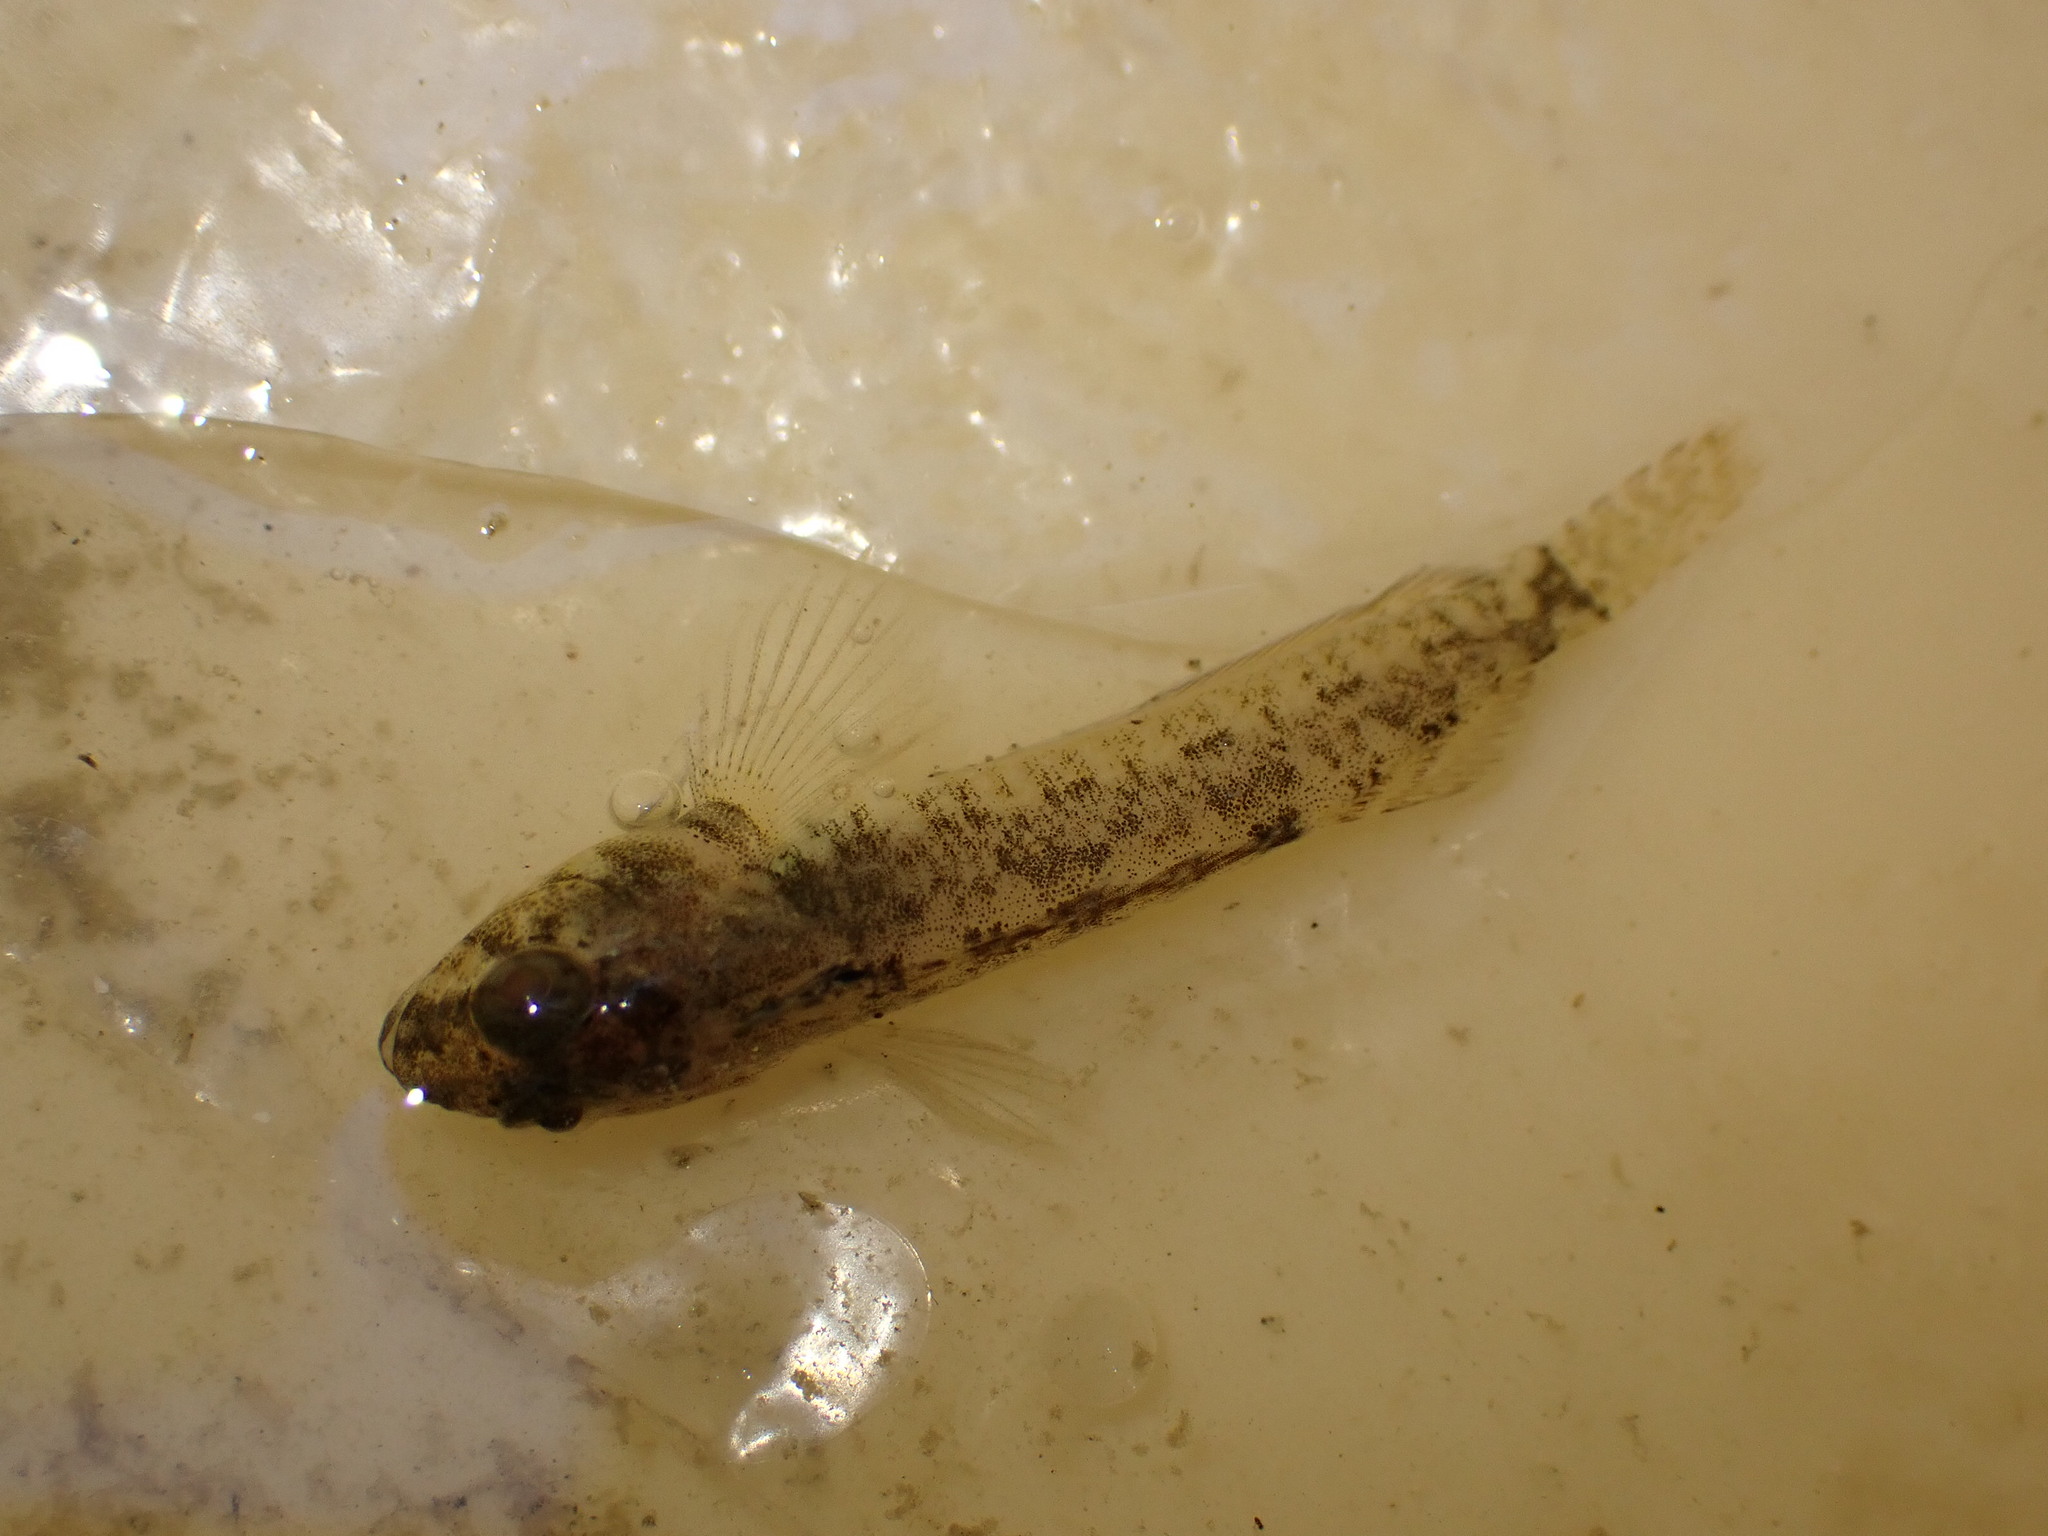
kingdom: Animalia
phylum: Chordata
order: Perciformes
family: Tripterygiidae
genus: Forsterygion
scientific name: Forsterygion
